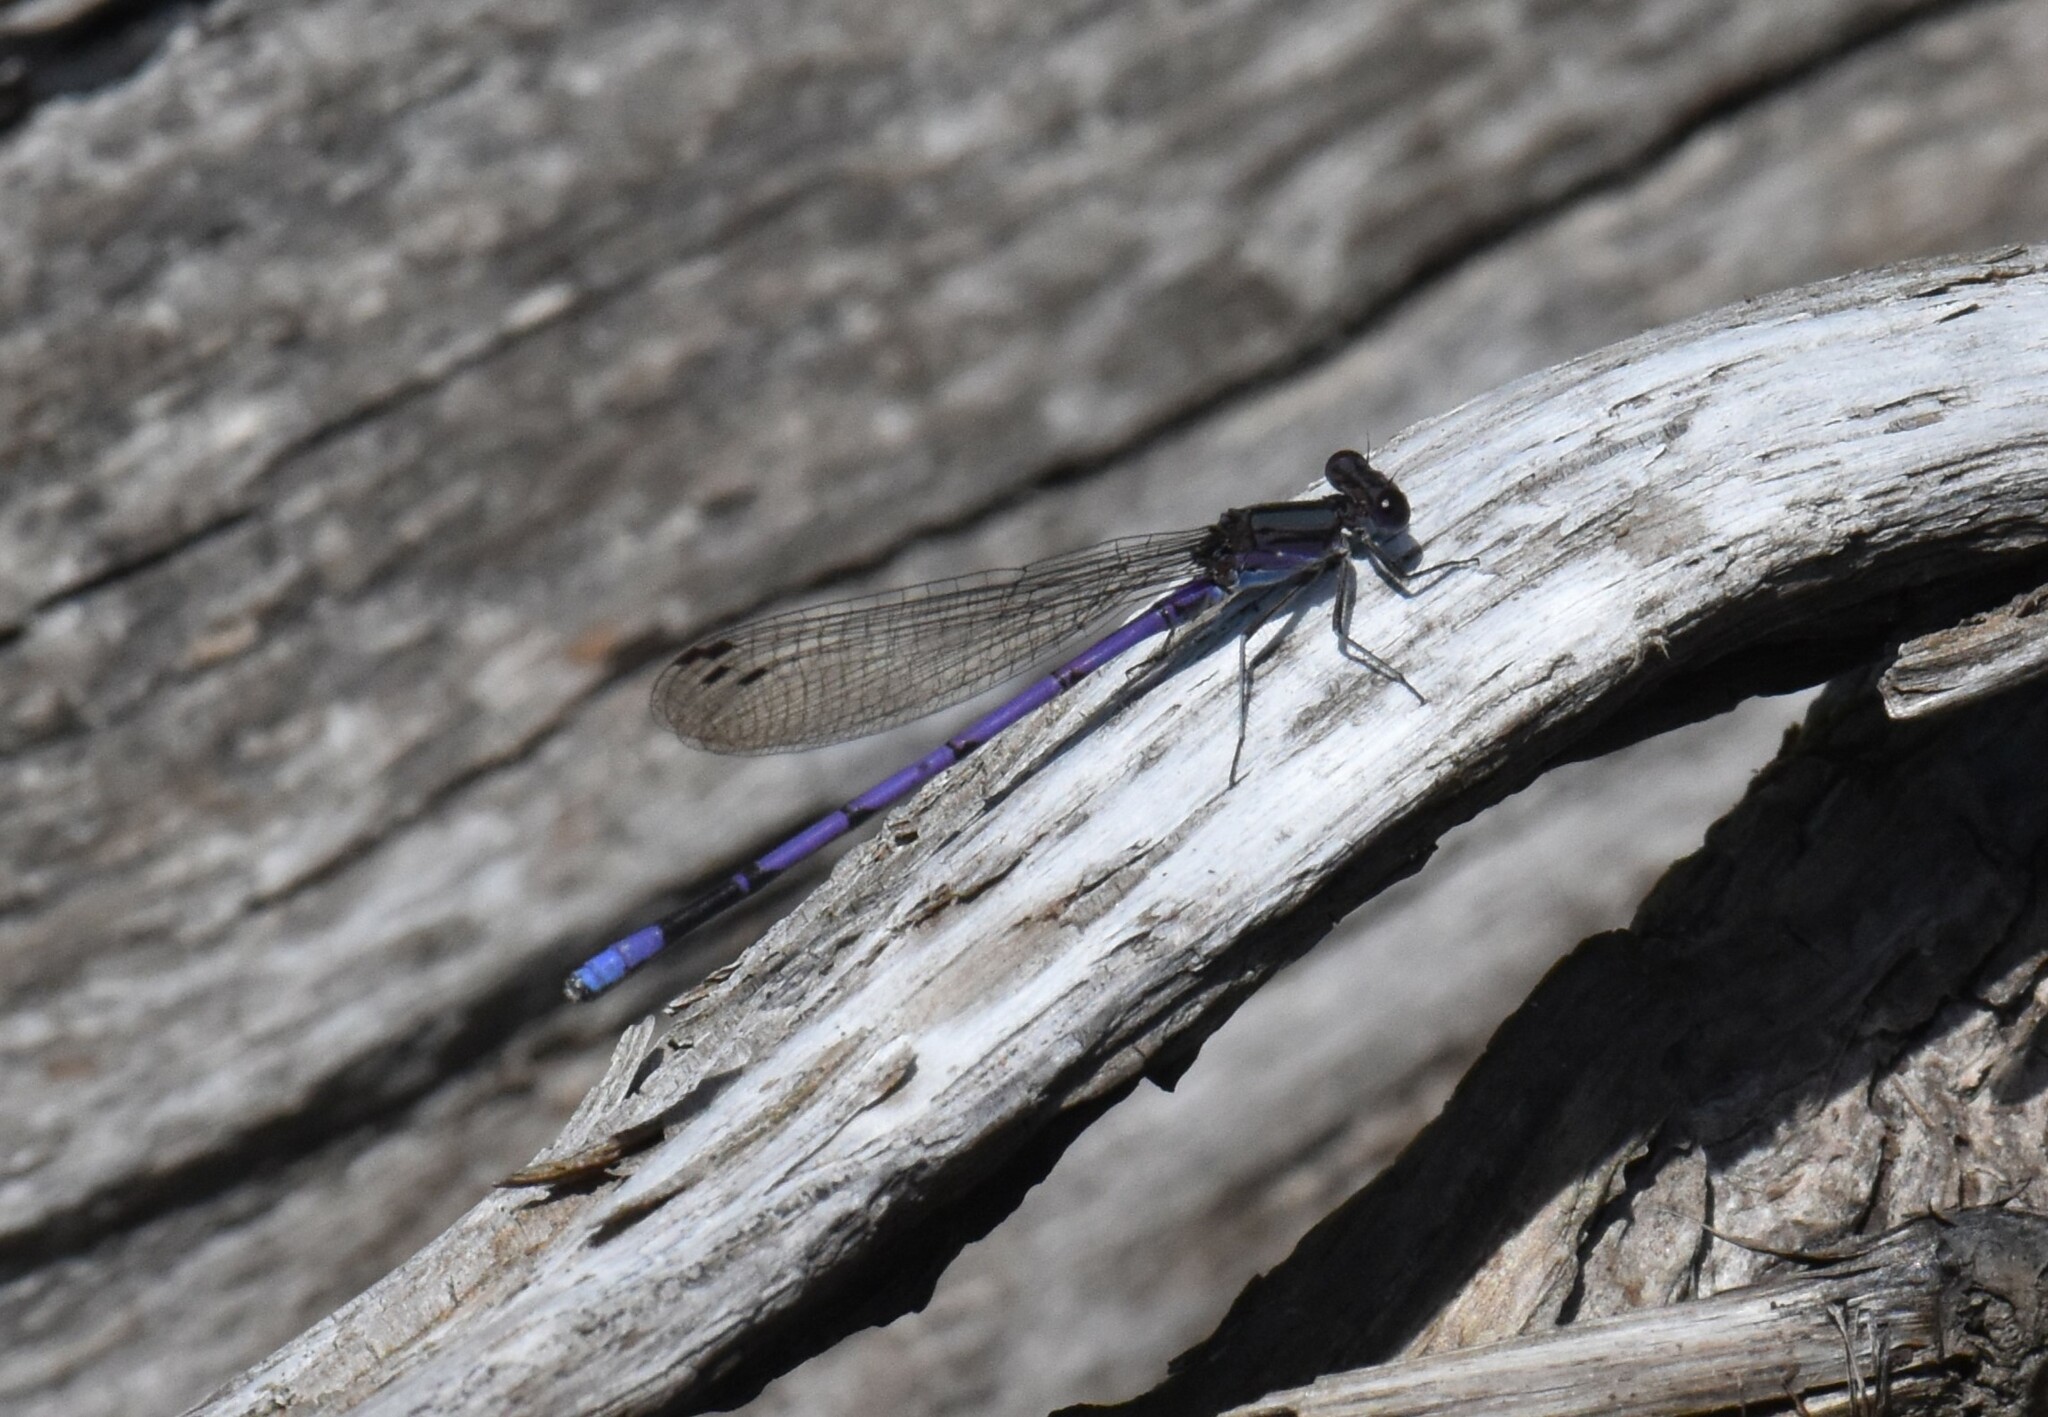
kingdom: Animalia
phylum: Arthropoda
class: Insecta
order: Odonata
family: Coenagrionidae
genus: Argia
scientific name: Argia fumipennis
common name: Variable dancer
